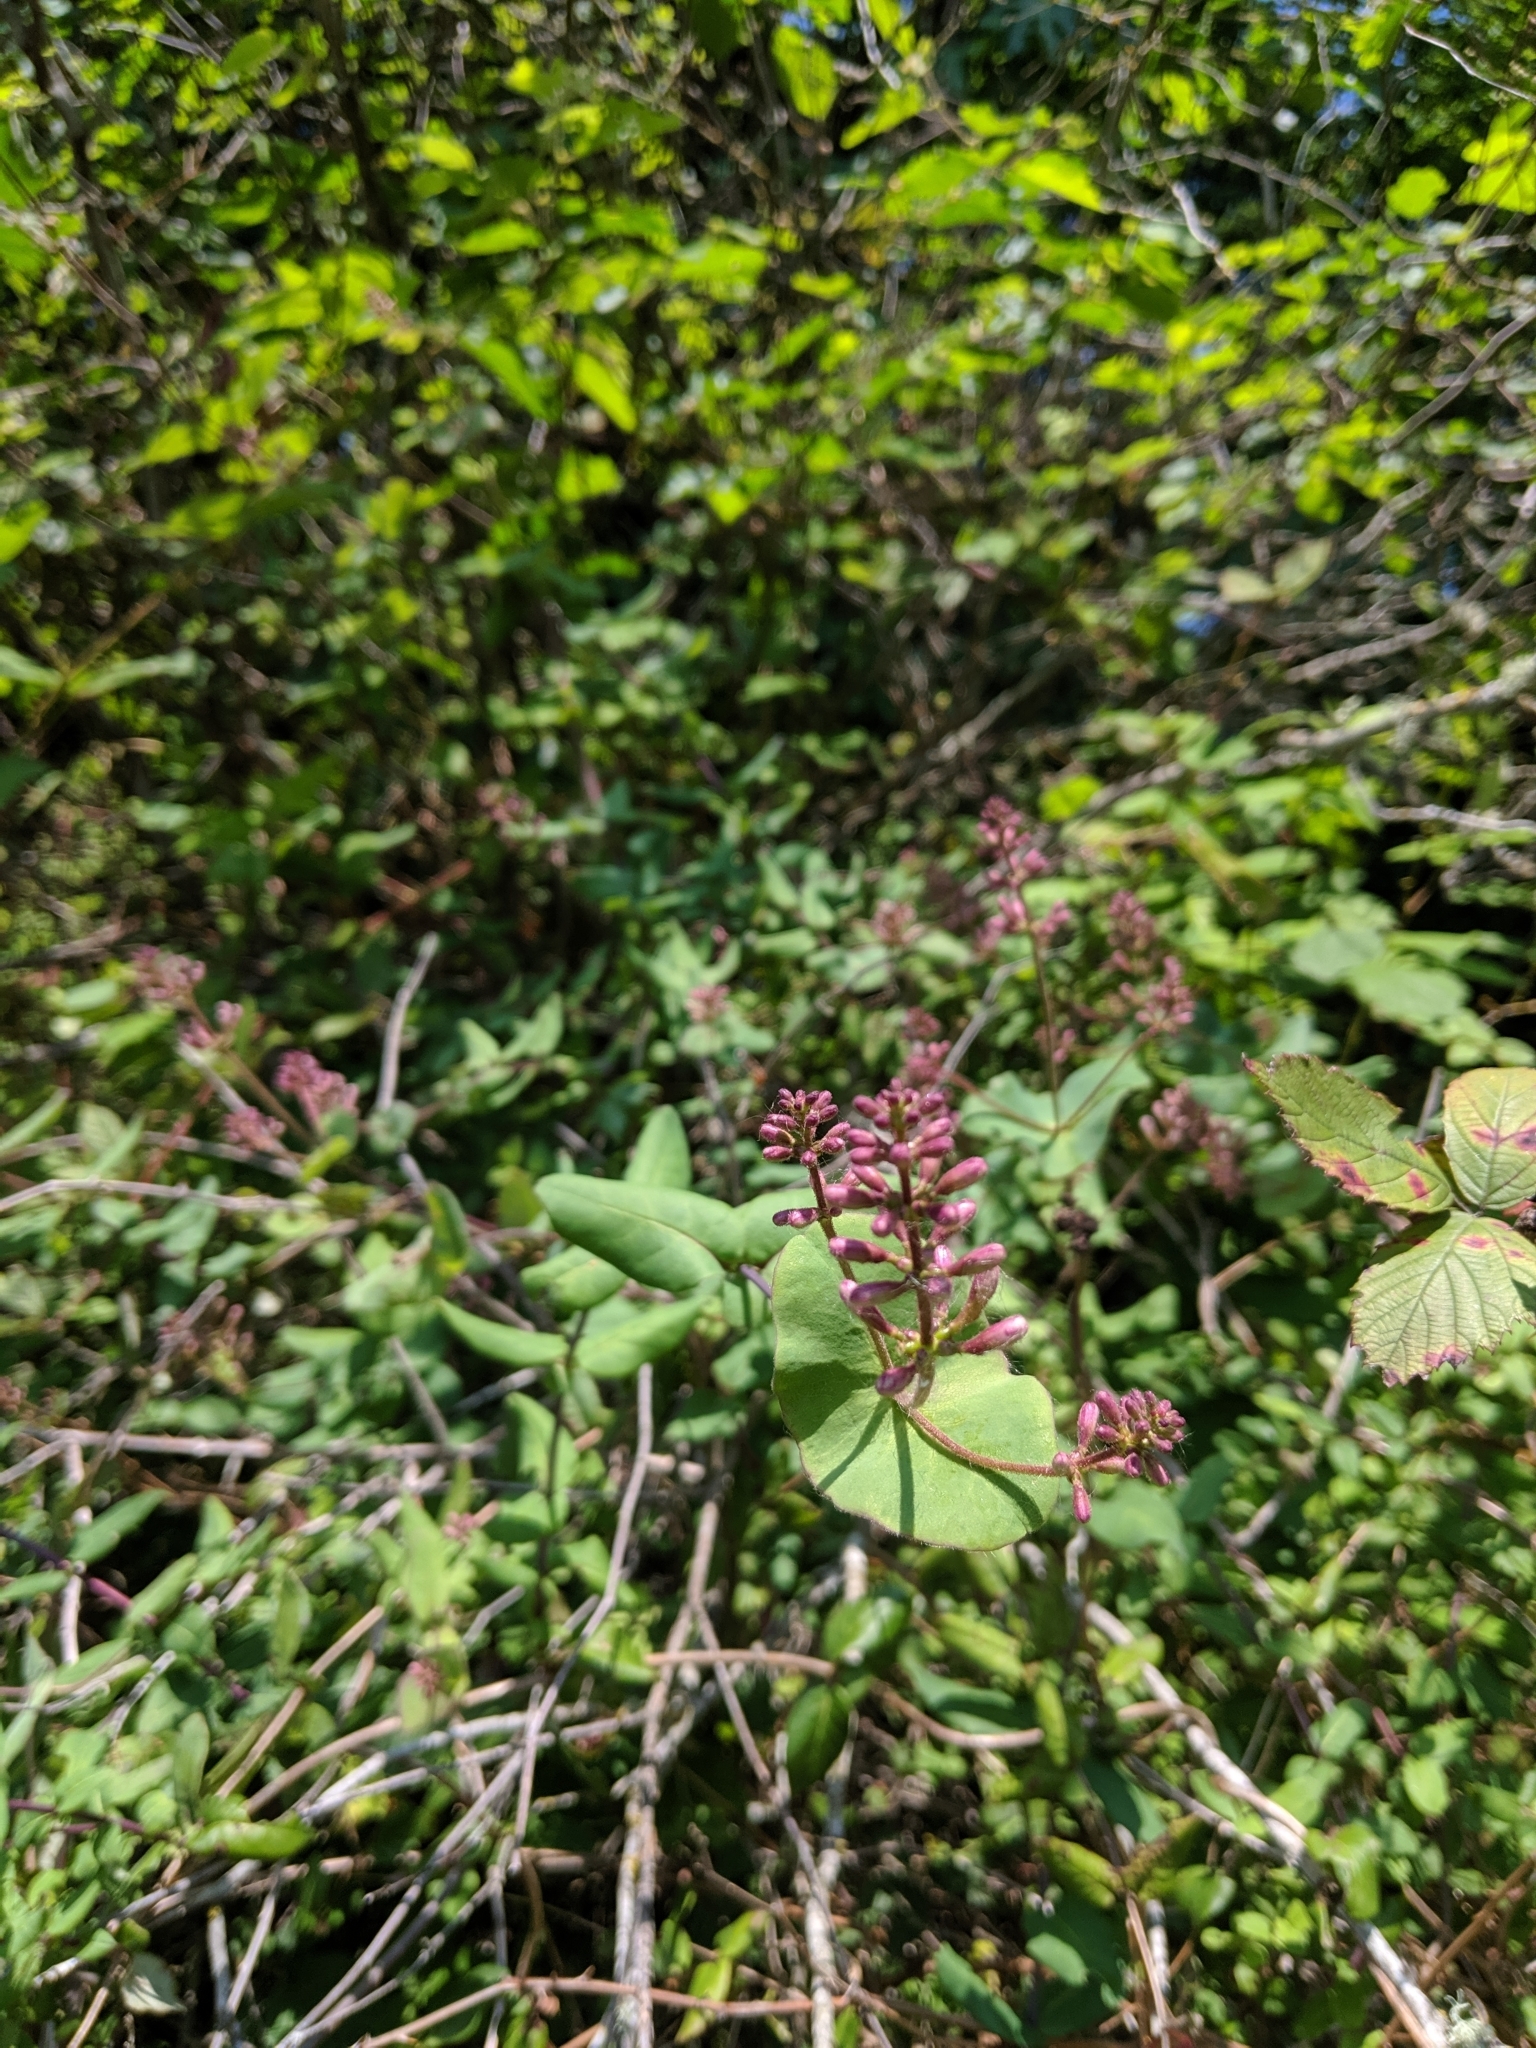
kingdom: Plantae
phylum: Tracheophyta
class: Magnoliopsida
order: Dipsacales
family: Caprifoliaceae
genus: Lonicera
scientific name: Lonicera hispidula
